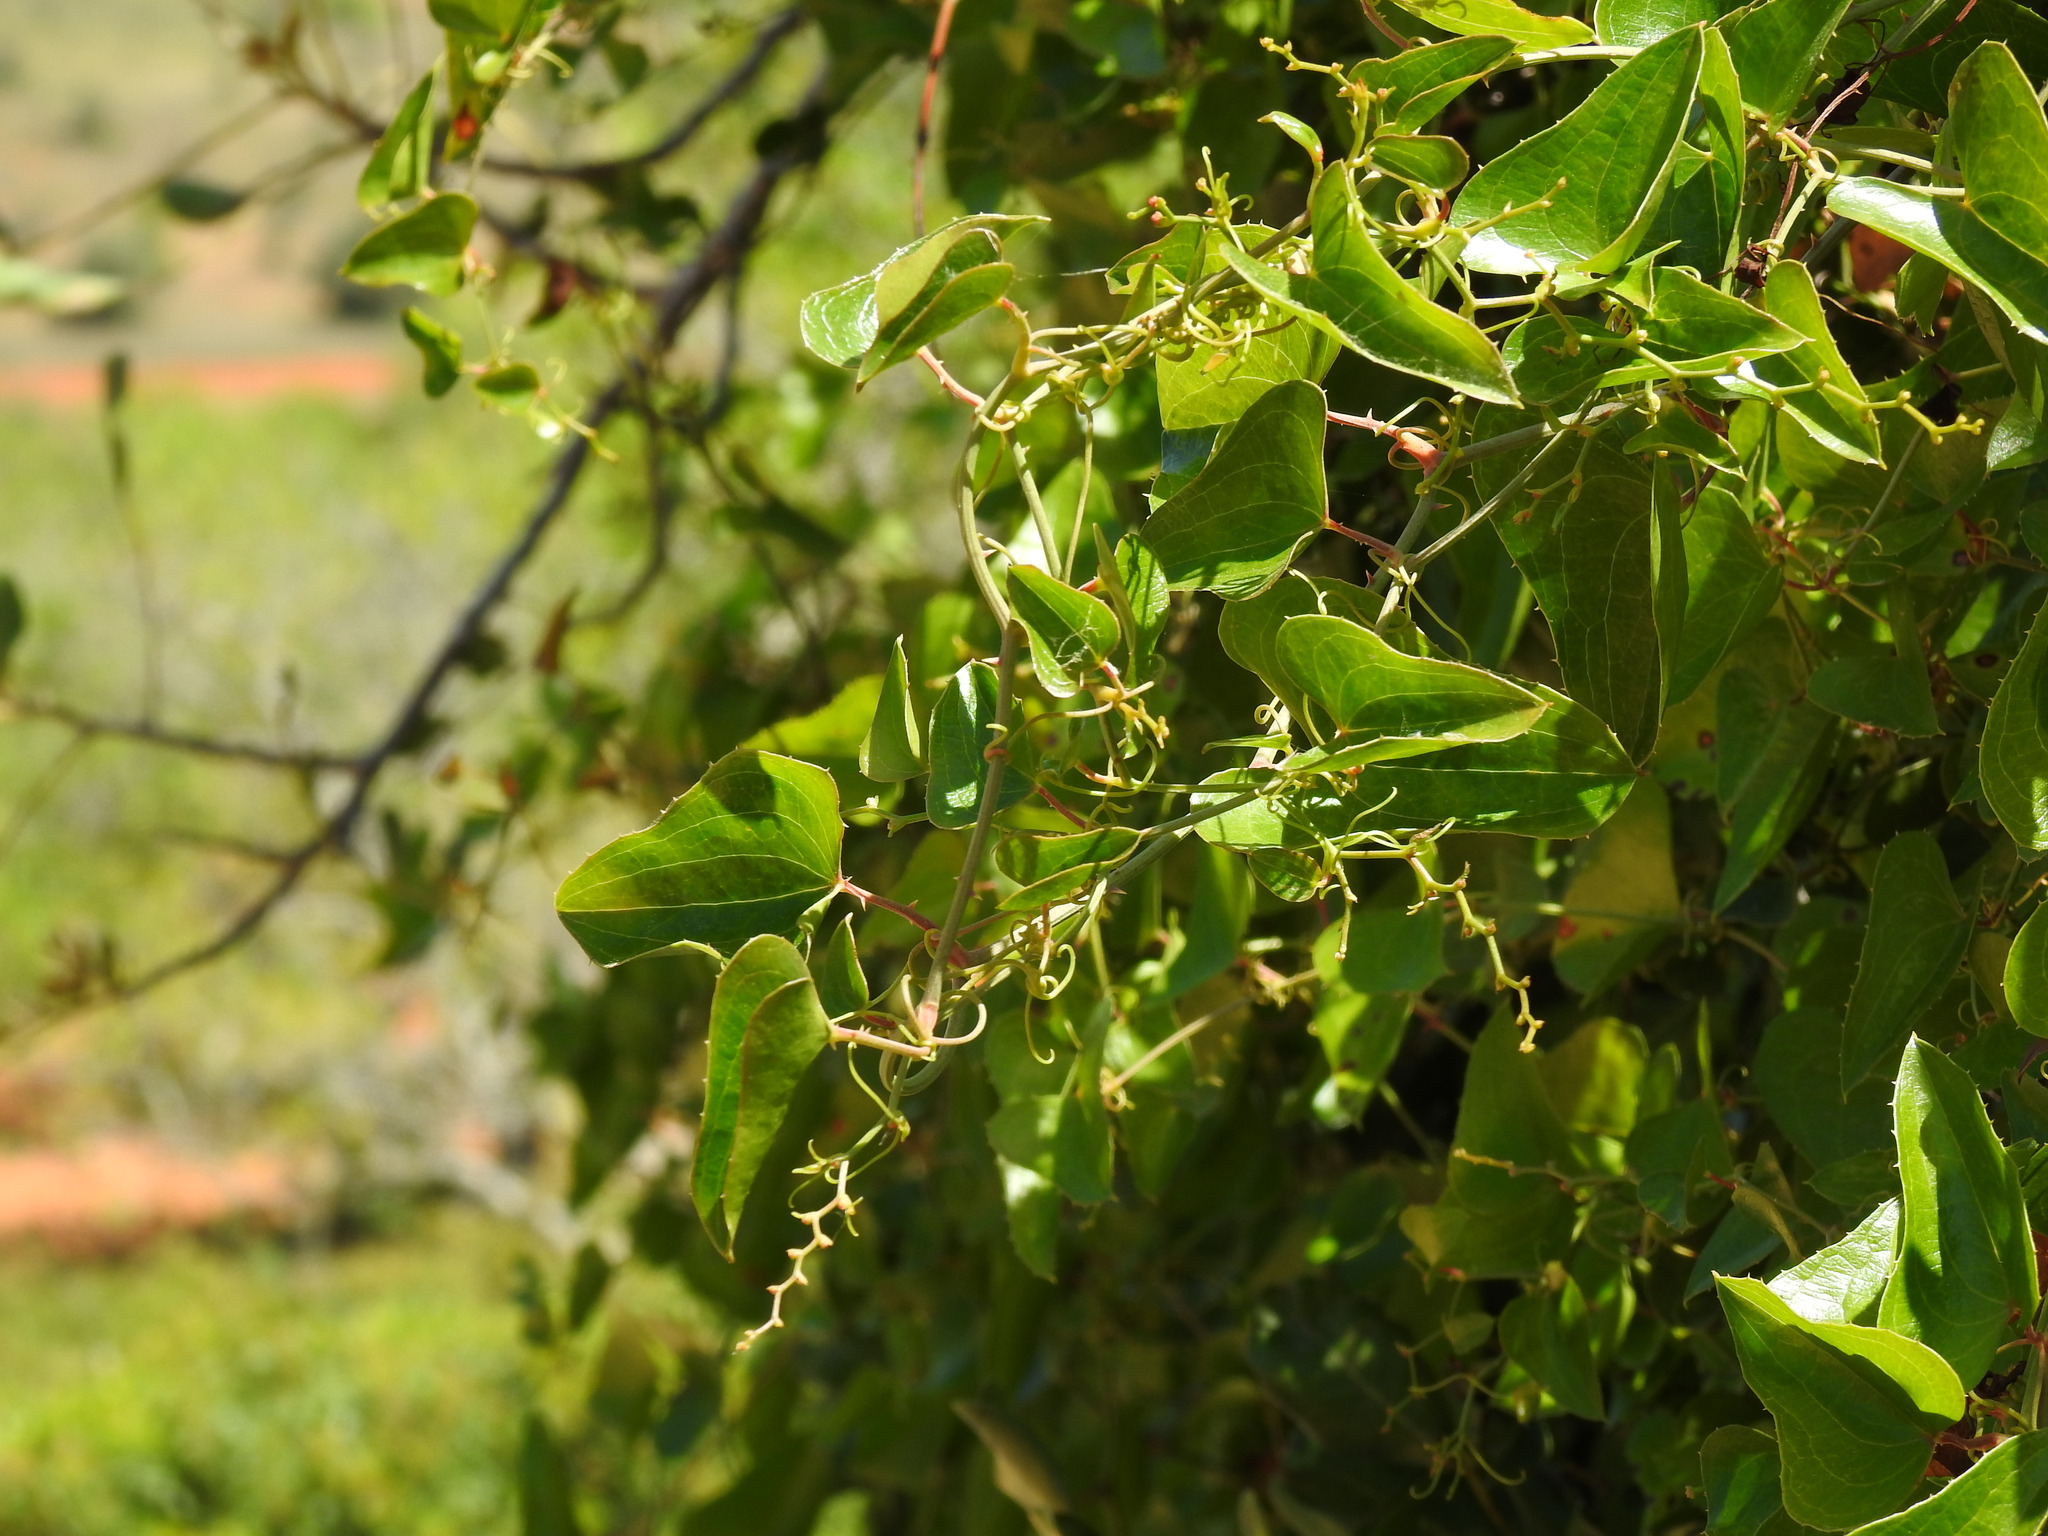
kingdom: Plantae
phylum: Tracheophyta
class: Liliopsida
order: Liliales
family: Smilacaceae
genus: Smilax
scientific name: Smilax aspera
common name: Common smilax
